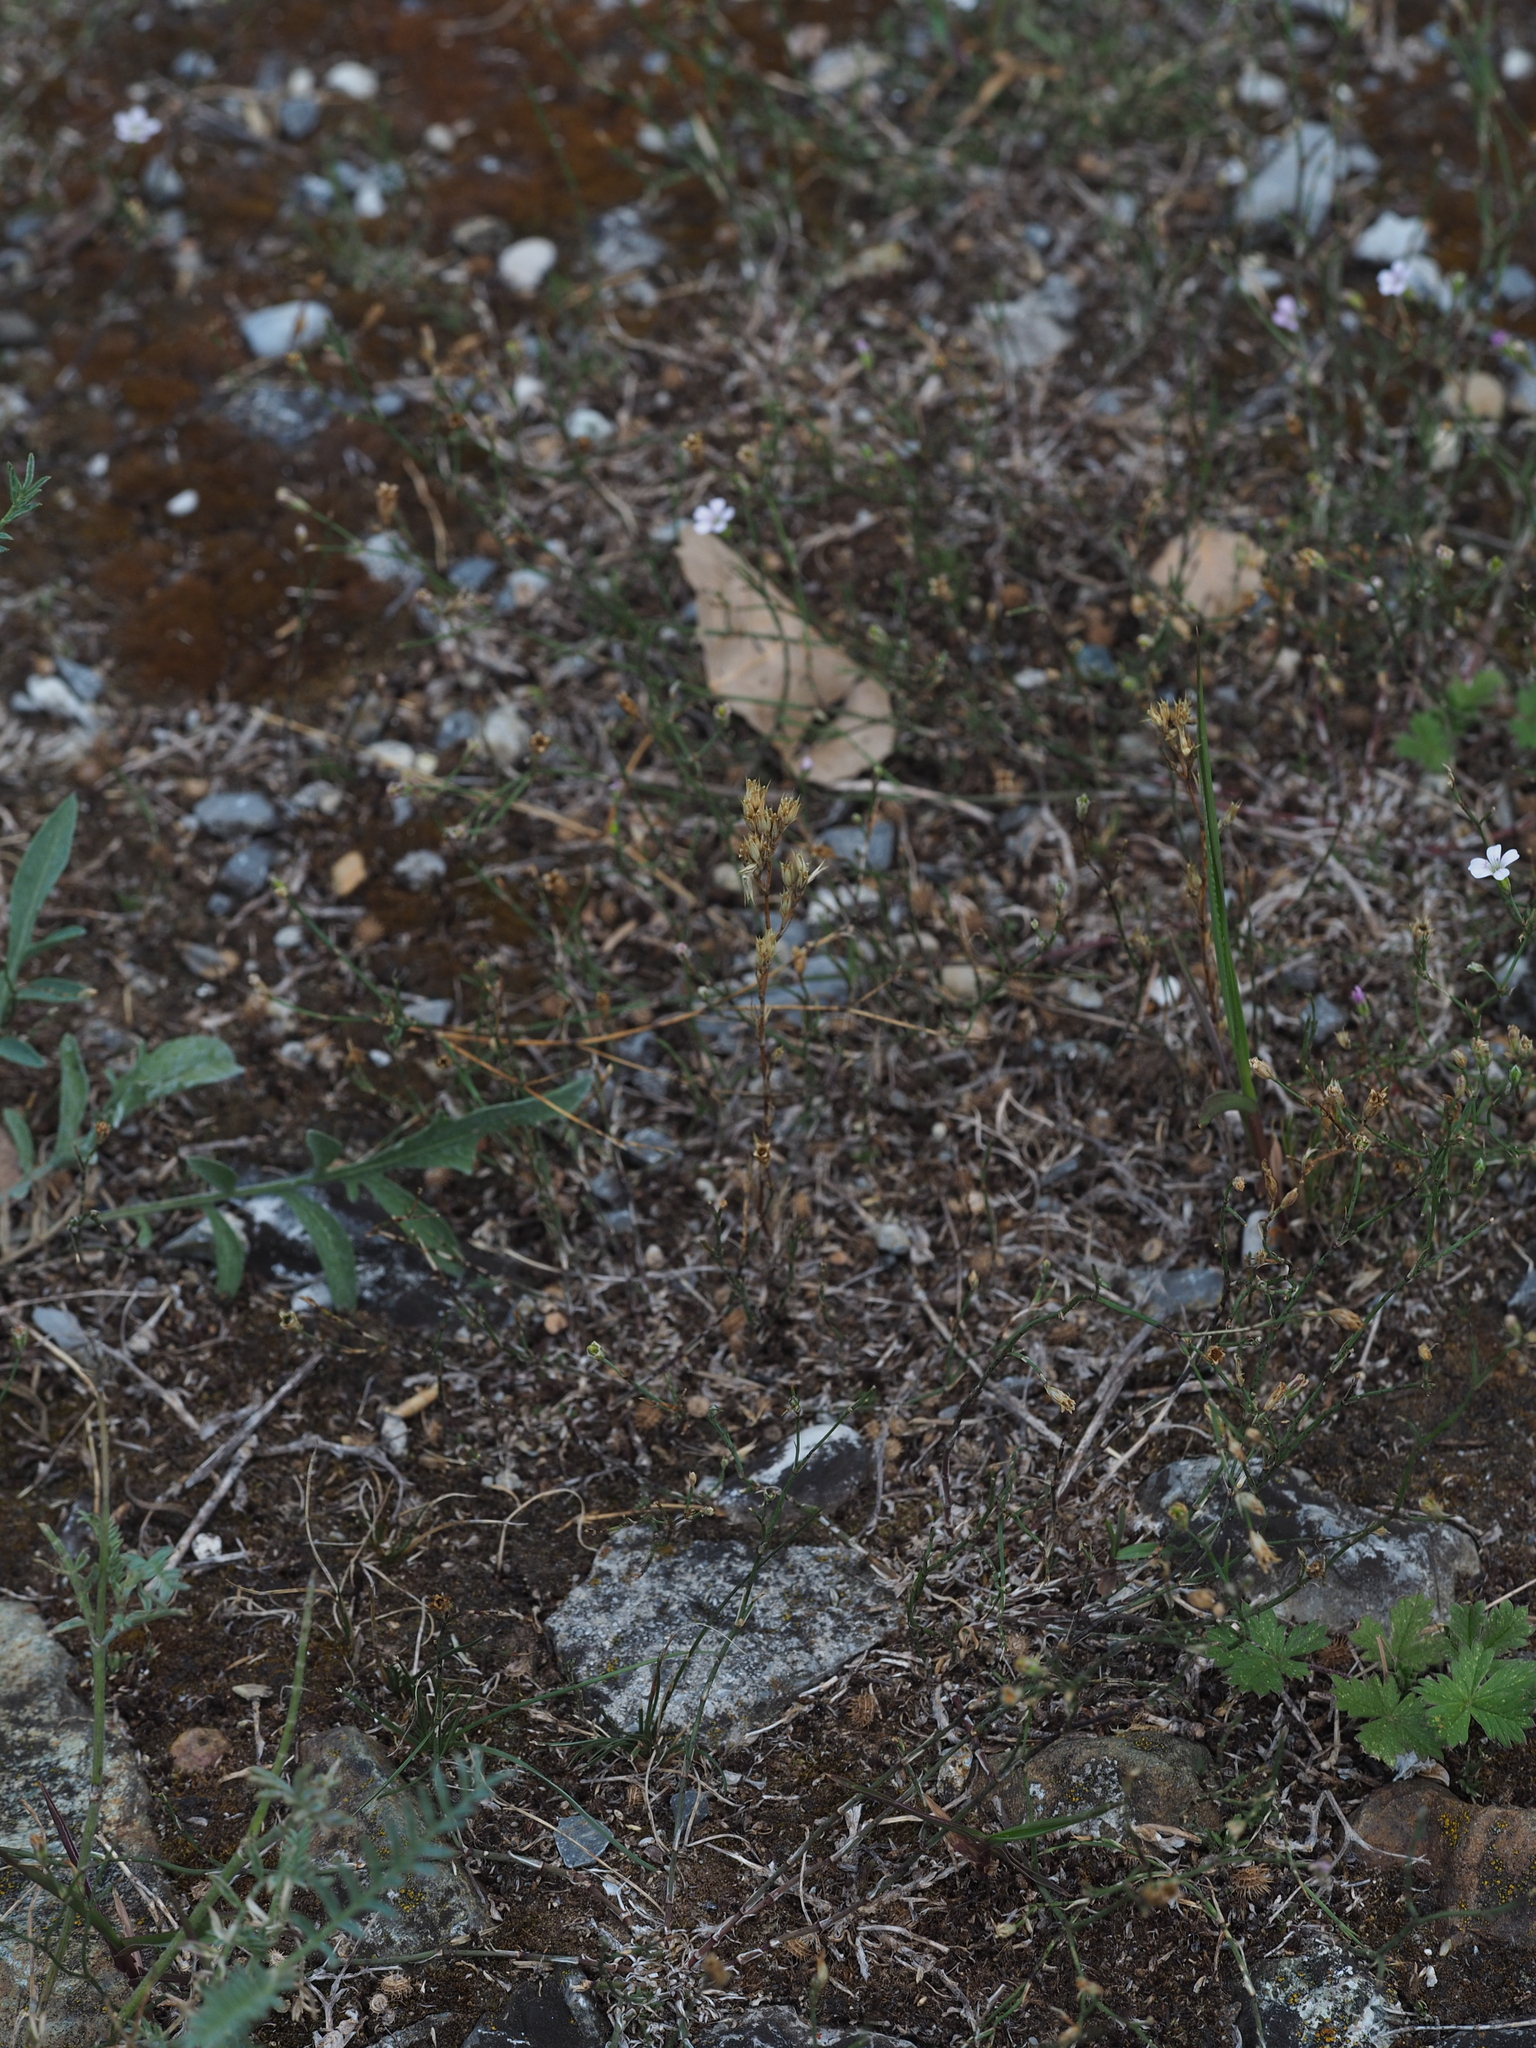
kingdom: Plantae
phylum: Tracheophyta
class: Magnoliopsida
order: Caryophyllales
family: Caryophyllaceae
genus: Minuartia
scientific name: Minuartia mucronata
